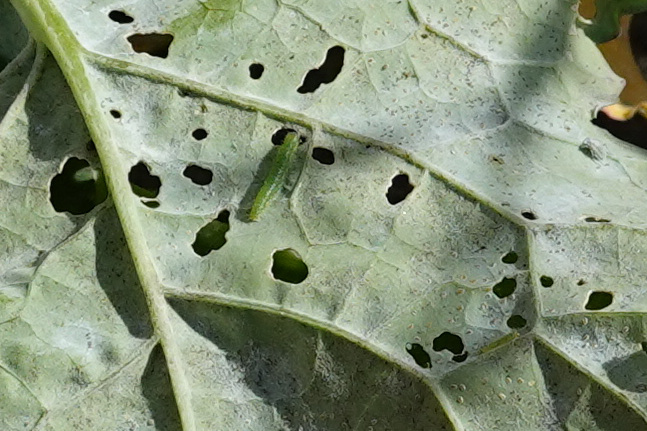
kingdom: Animalia
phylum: Arthropoda
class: Insecta
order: Lepidoptera
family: Pieridae
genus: Pieris
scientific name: Pieris rapae
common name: Small white
